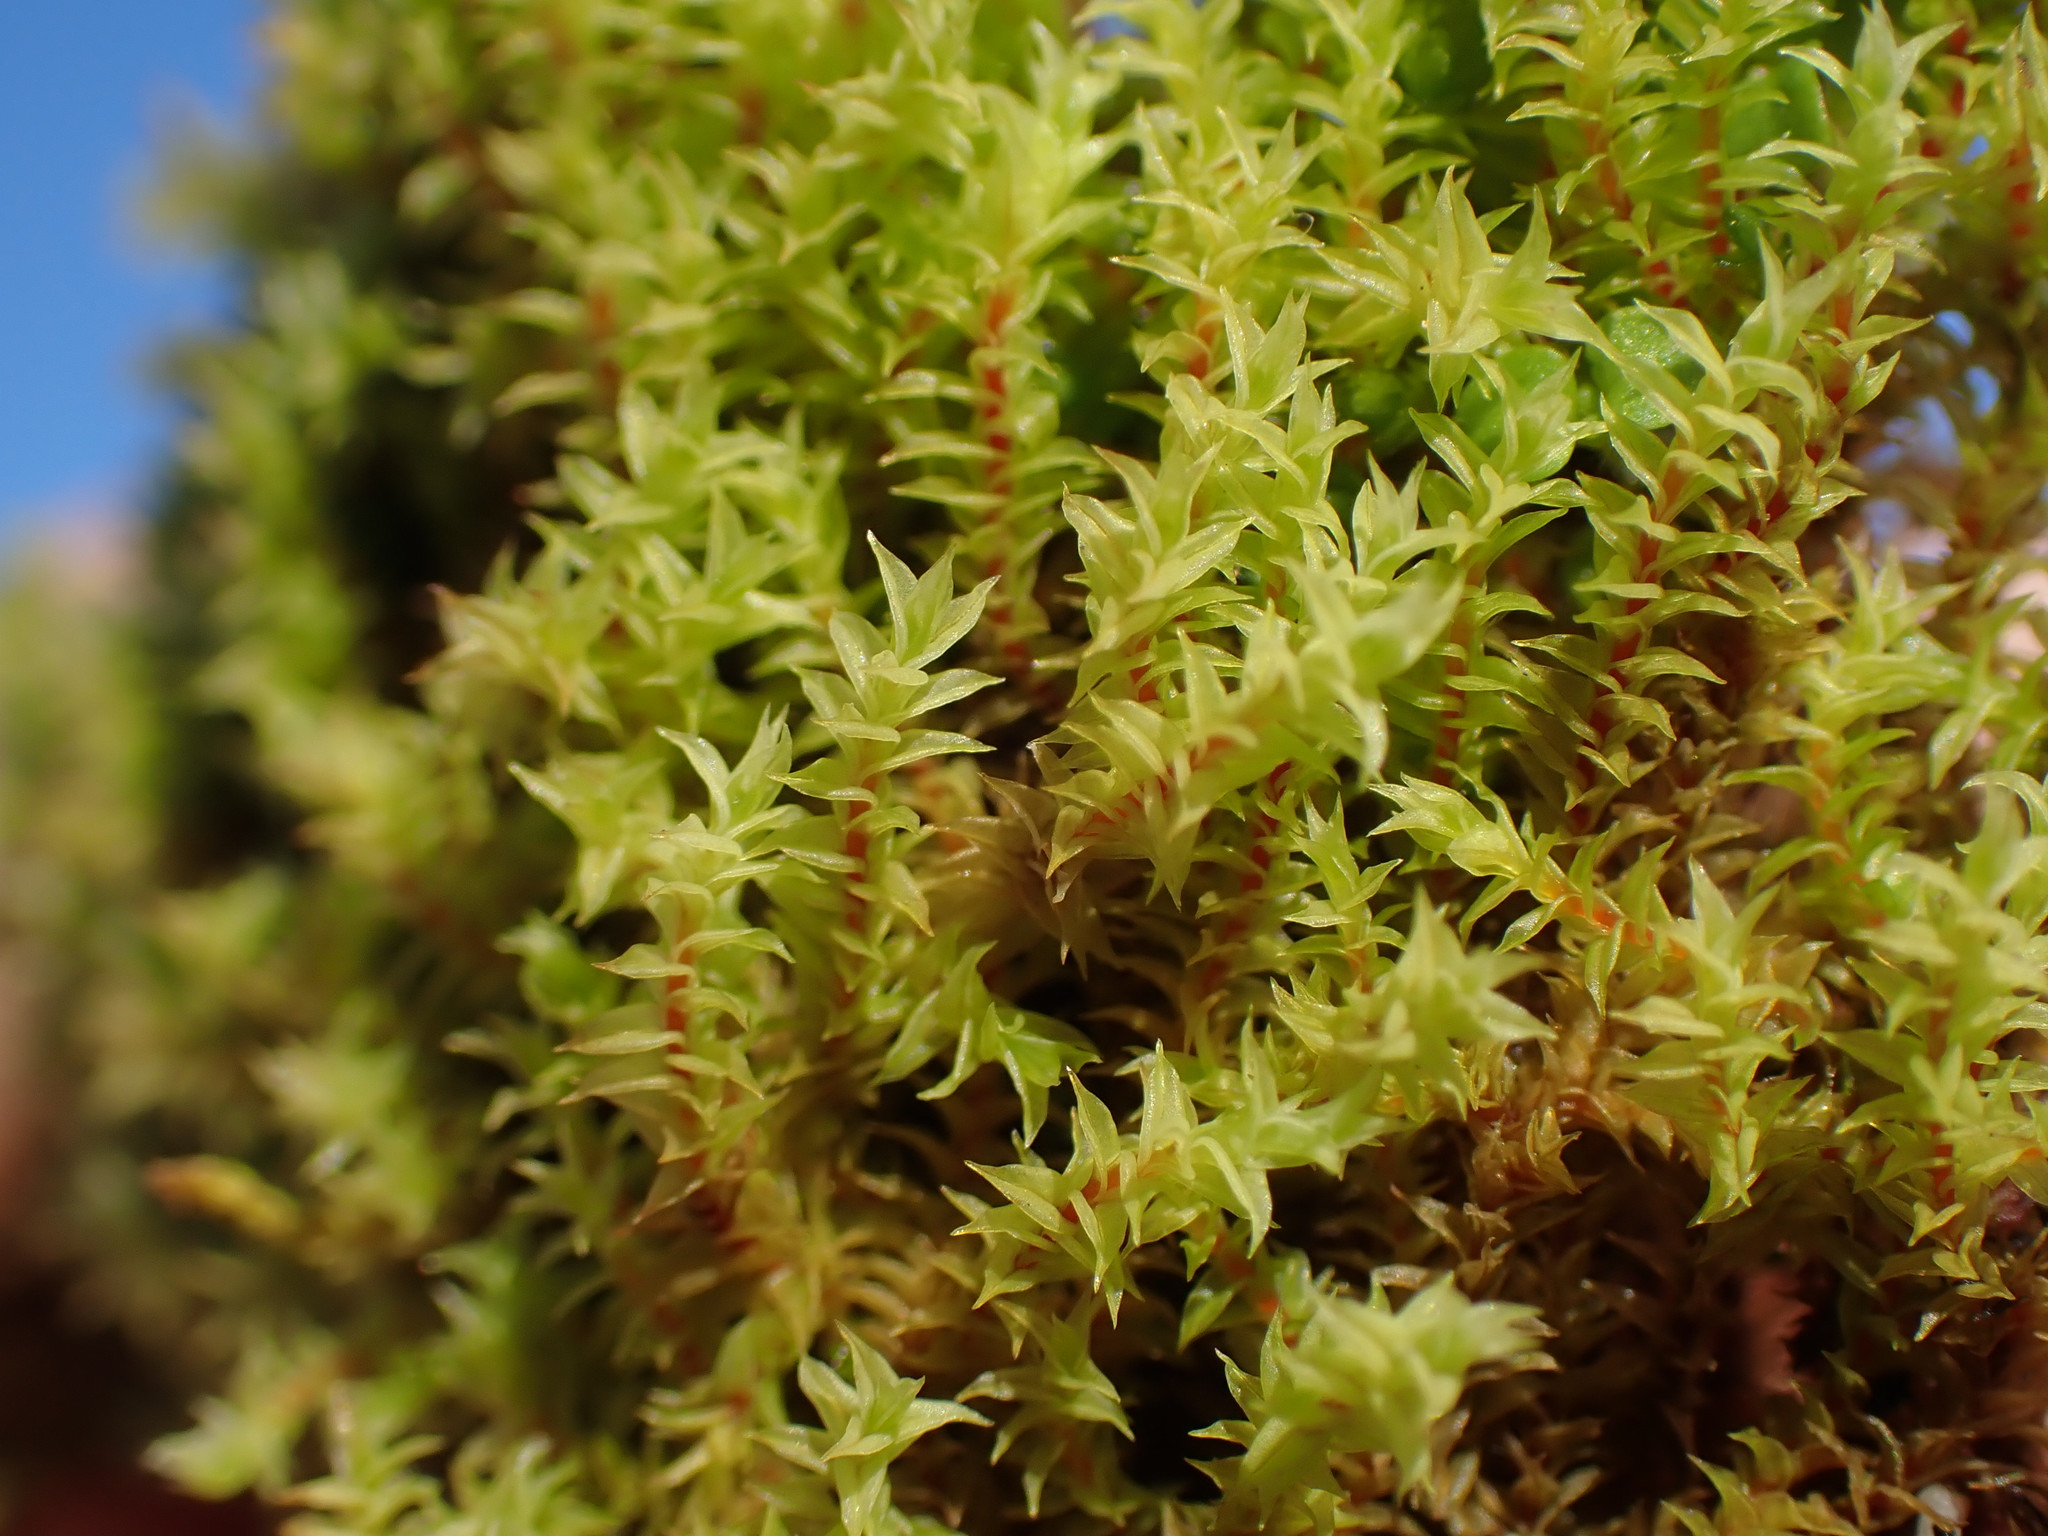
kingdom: Plantae
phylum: Bryophyta
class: Bryopsida
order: Pottiales
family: Pottiaceae
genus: Triquetrella
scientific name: Triquetrella californica
